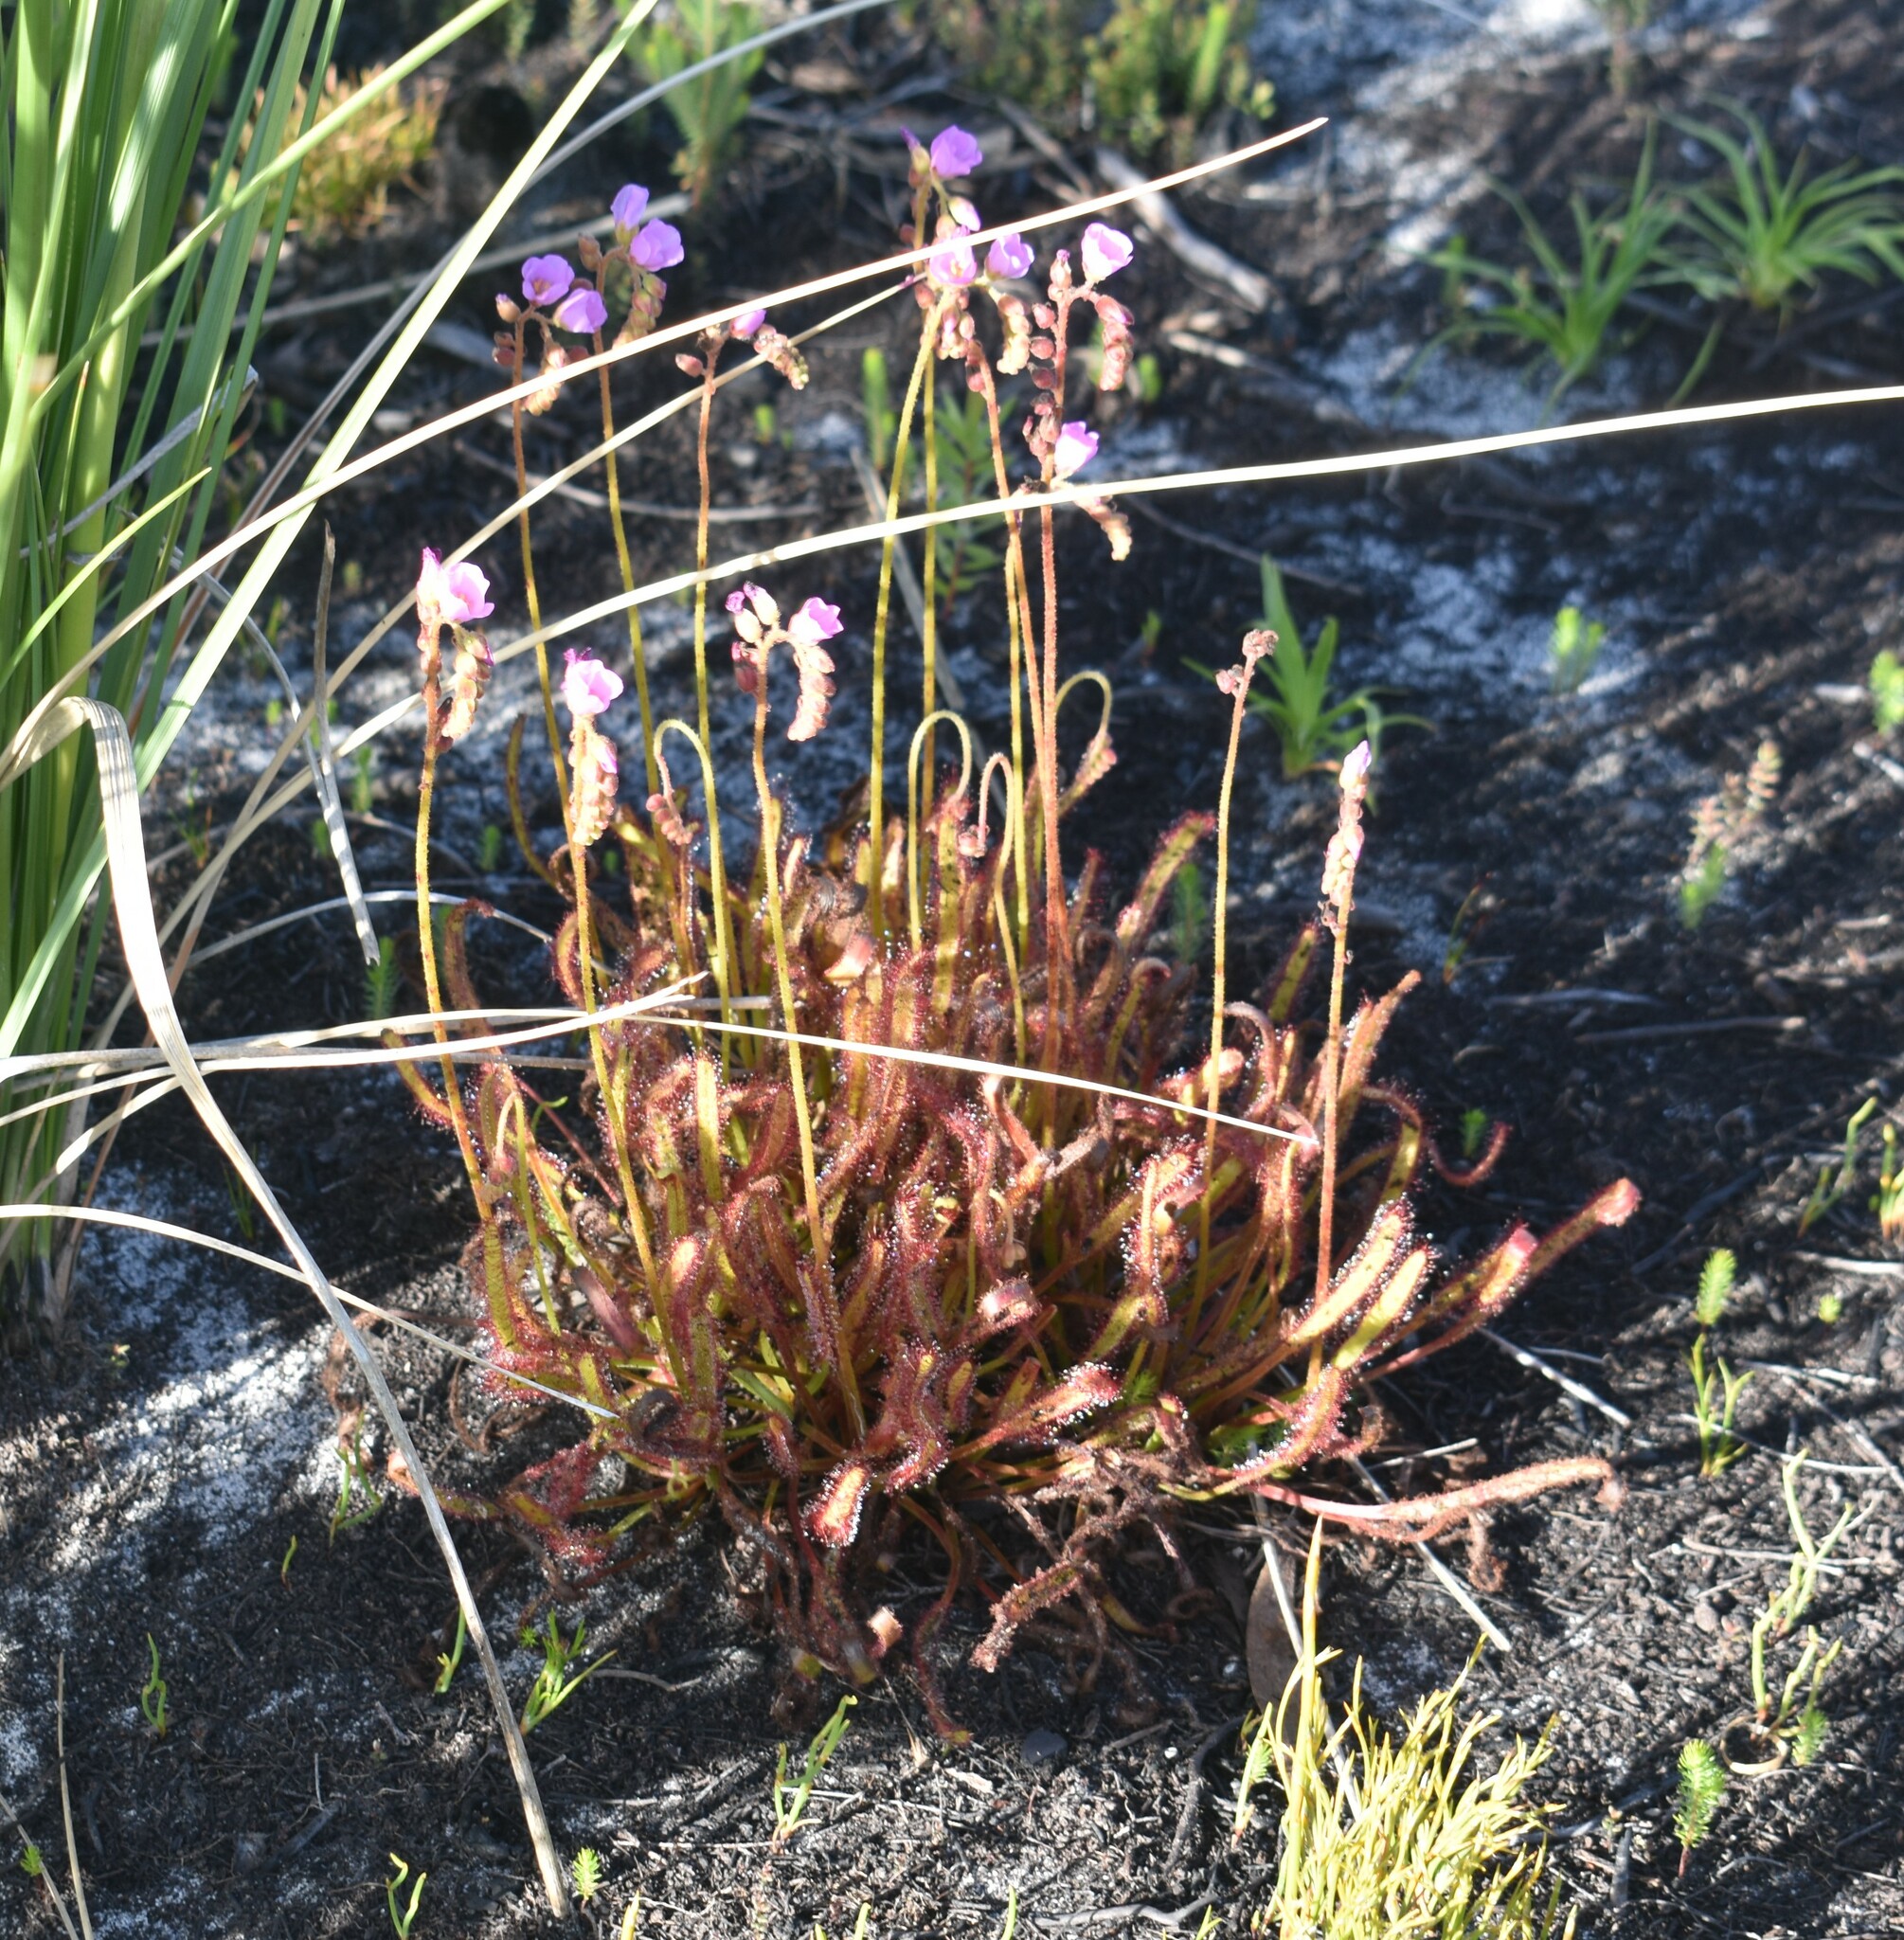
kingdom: Plantae
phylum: Tracheophyta
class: Magnoliopsida
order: Caryophyllales
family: Droseraceae
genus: Drosera
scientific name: Drosera capensis
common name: Cape sundew
